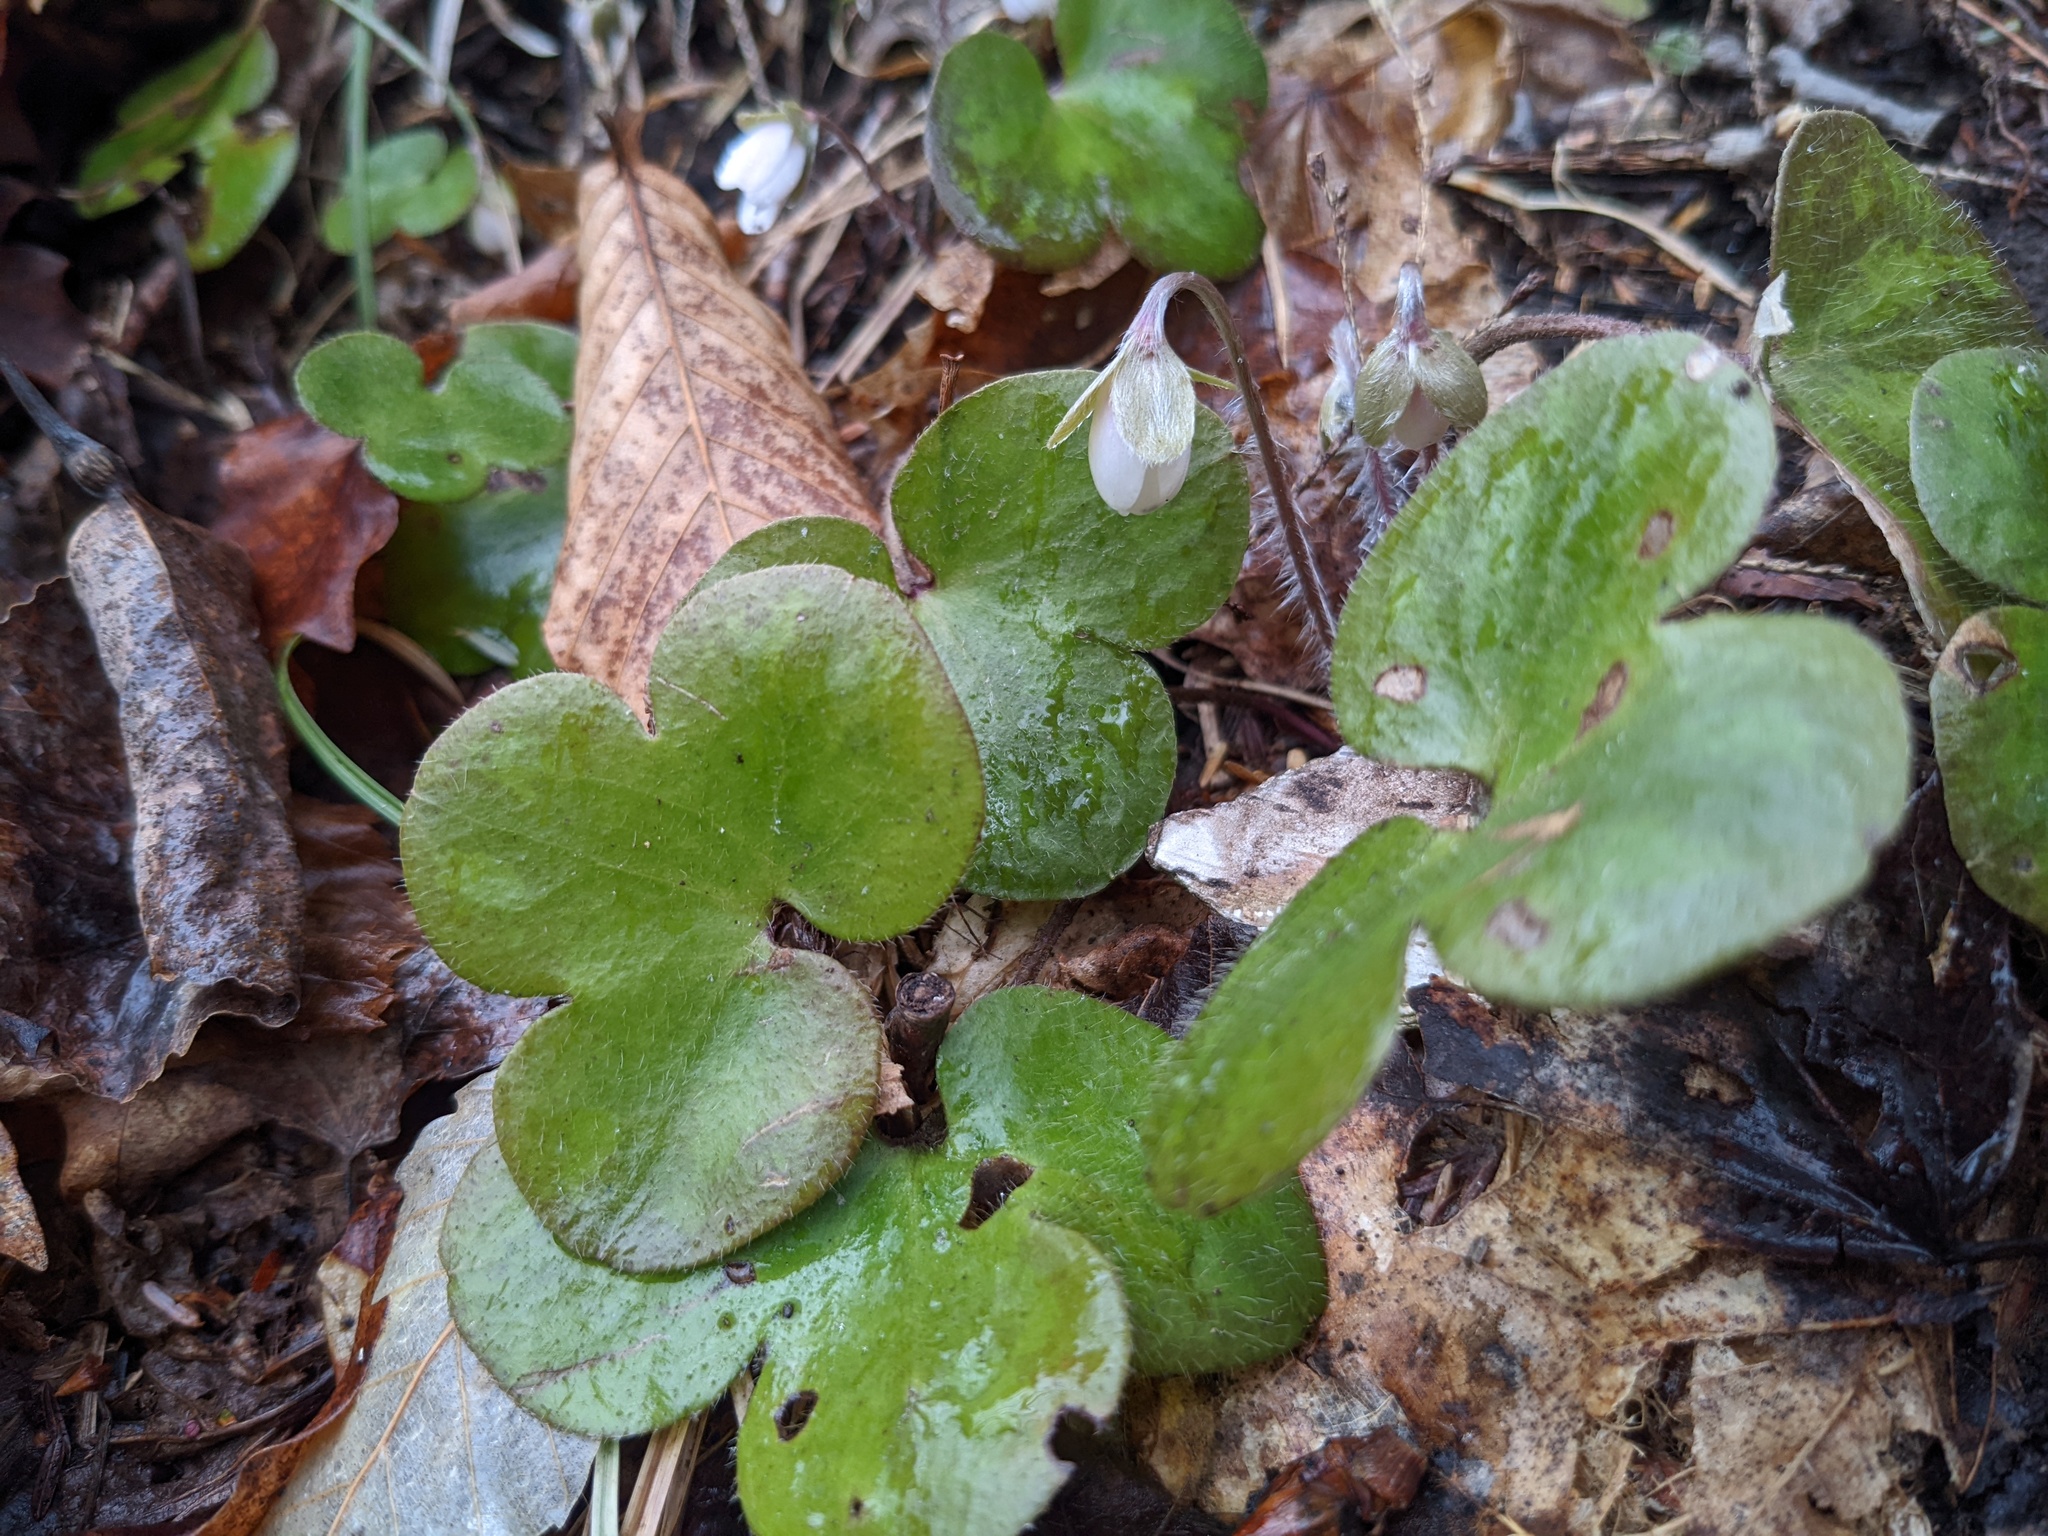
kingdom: Plantae
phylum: Tracheophyta
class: Magnoliopsida
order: Ranunculales
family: Ranunculaceae
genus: Hepatica
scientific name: Hepatica americana
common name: American hepatica
